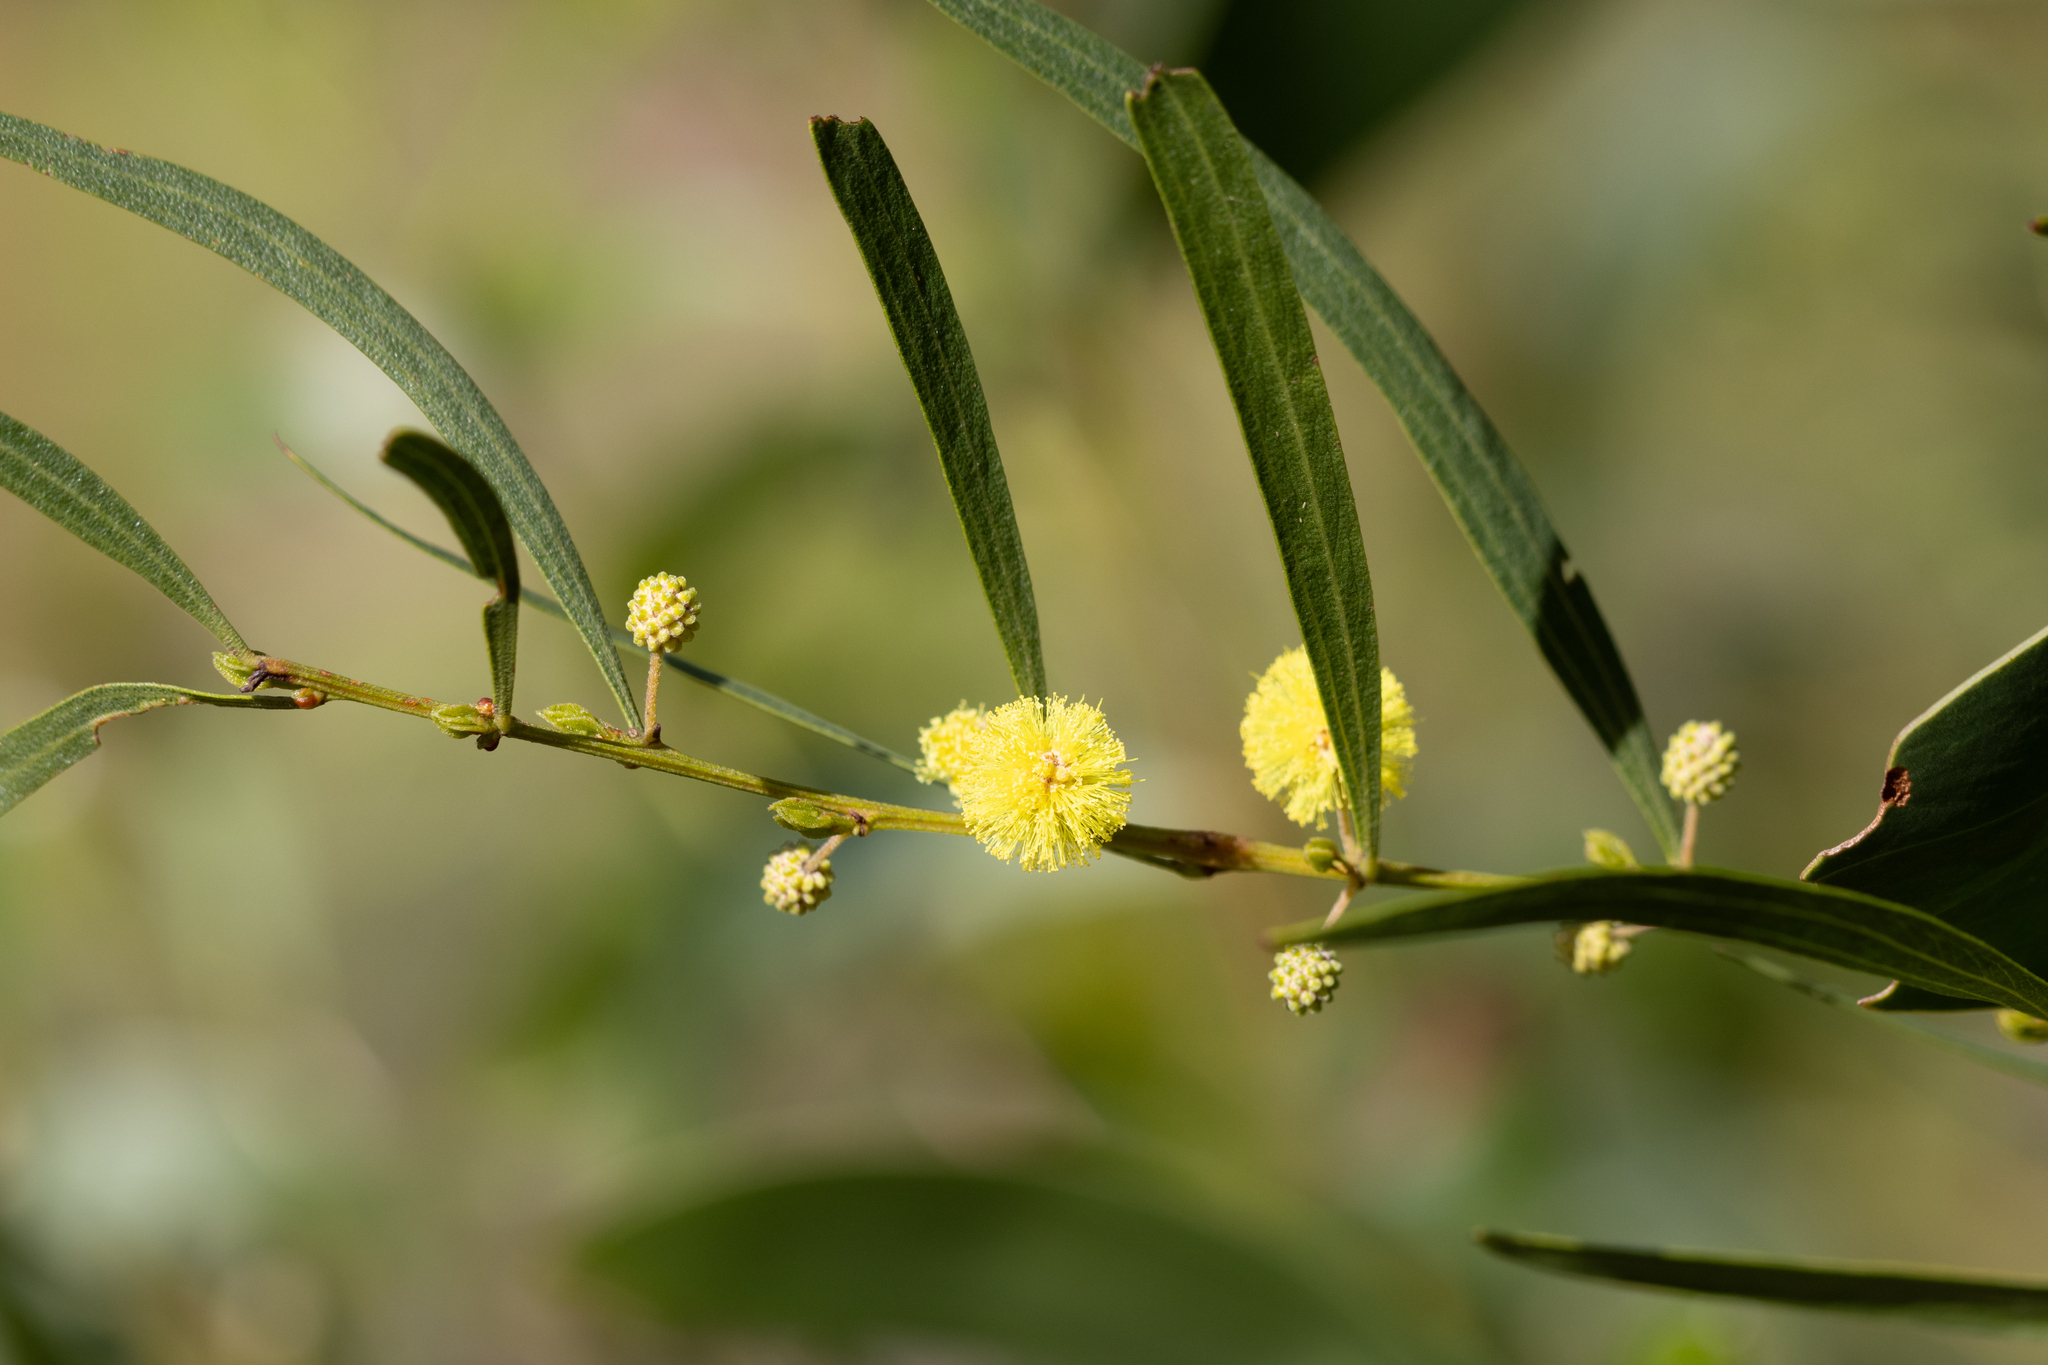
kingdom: Plantae
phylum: Tracheophyta
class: Magnoliopsida
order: Fabales
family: Fabaceae
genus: Acacia
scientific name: Acacia verniciflua
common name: Varnish wattle
